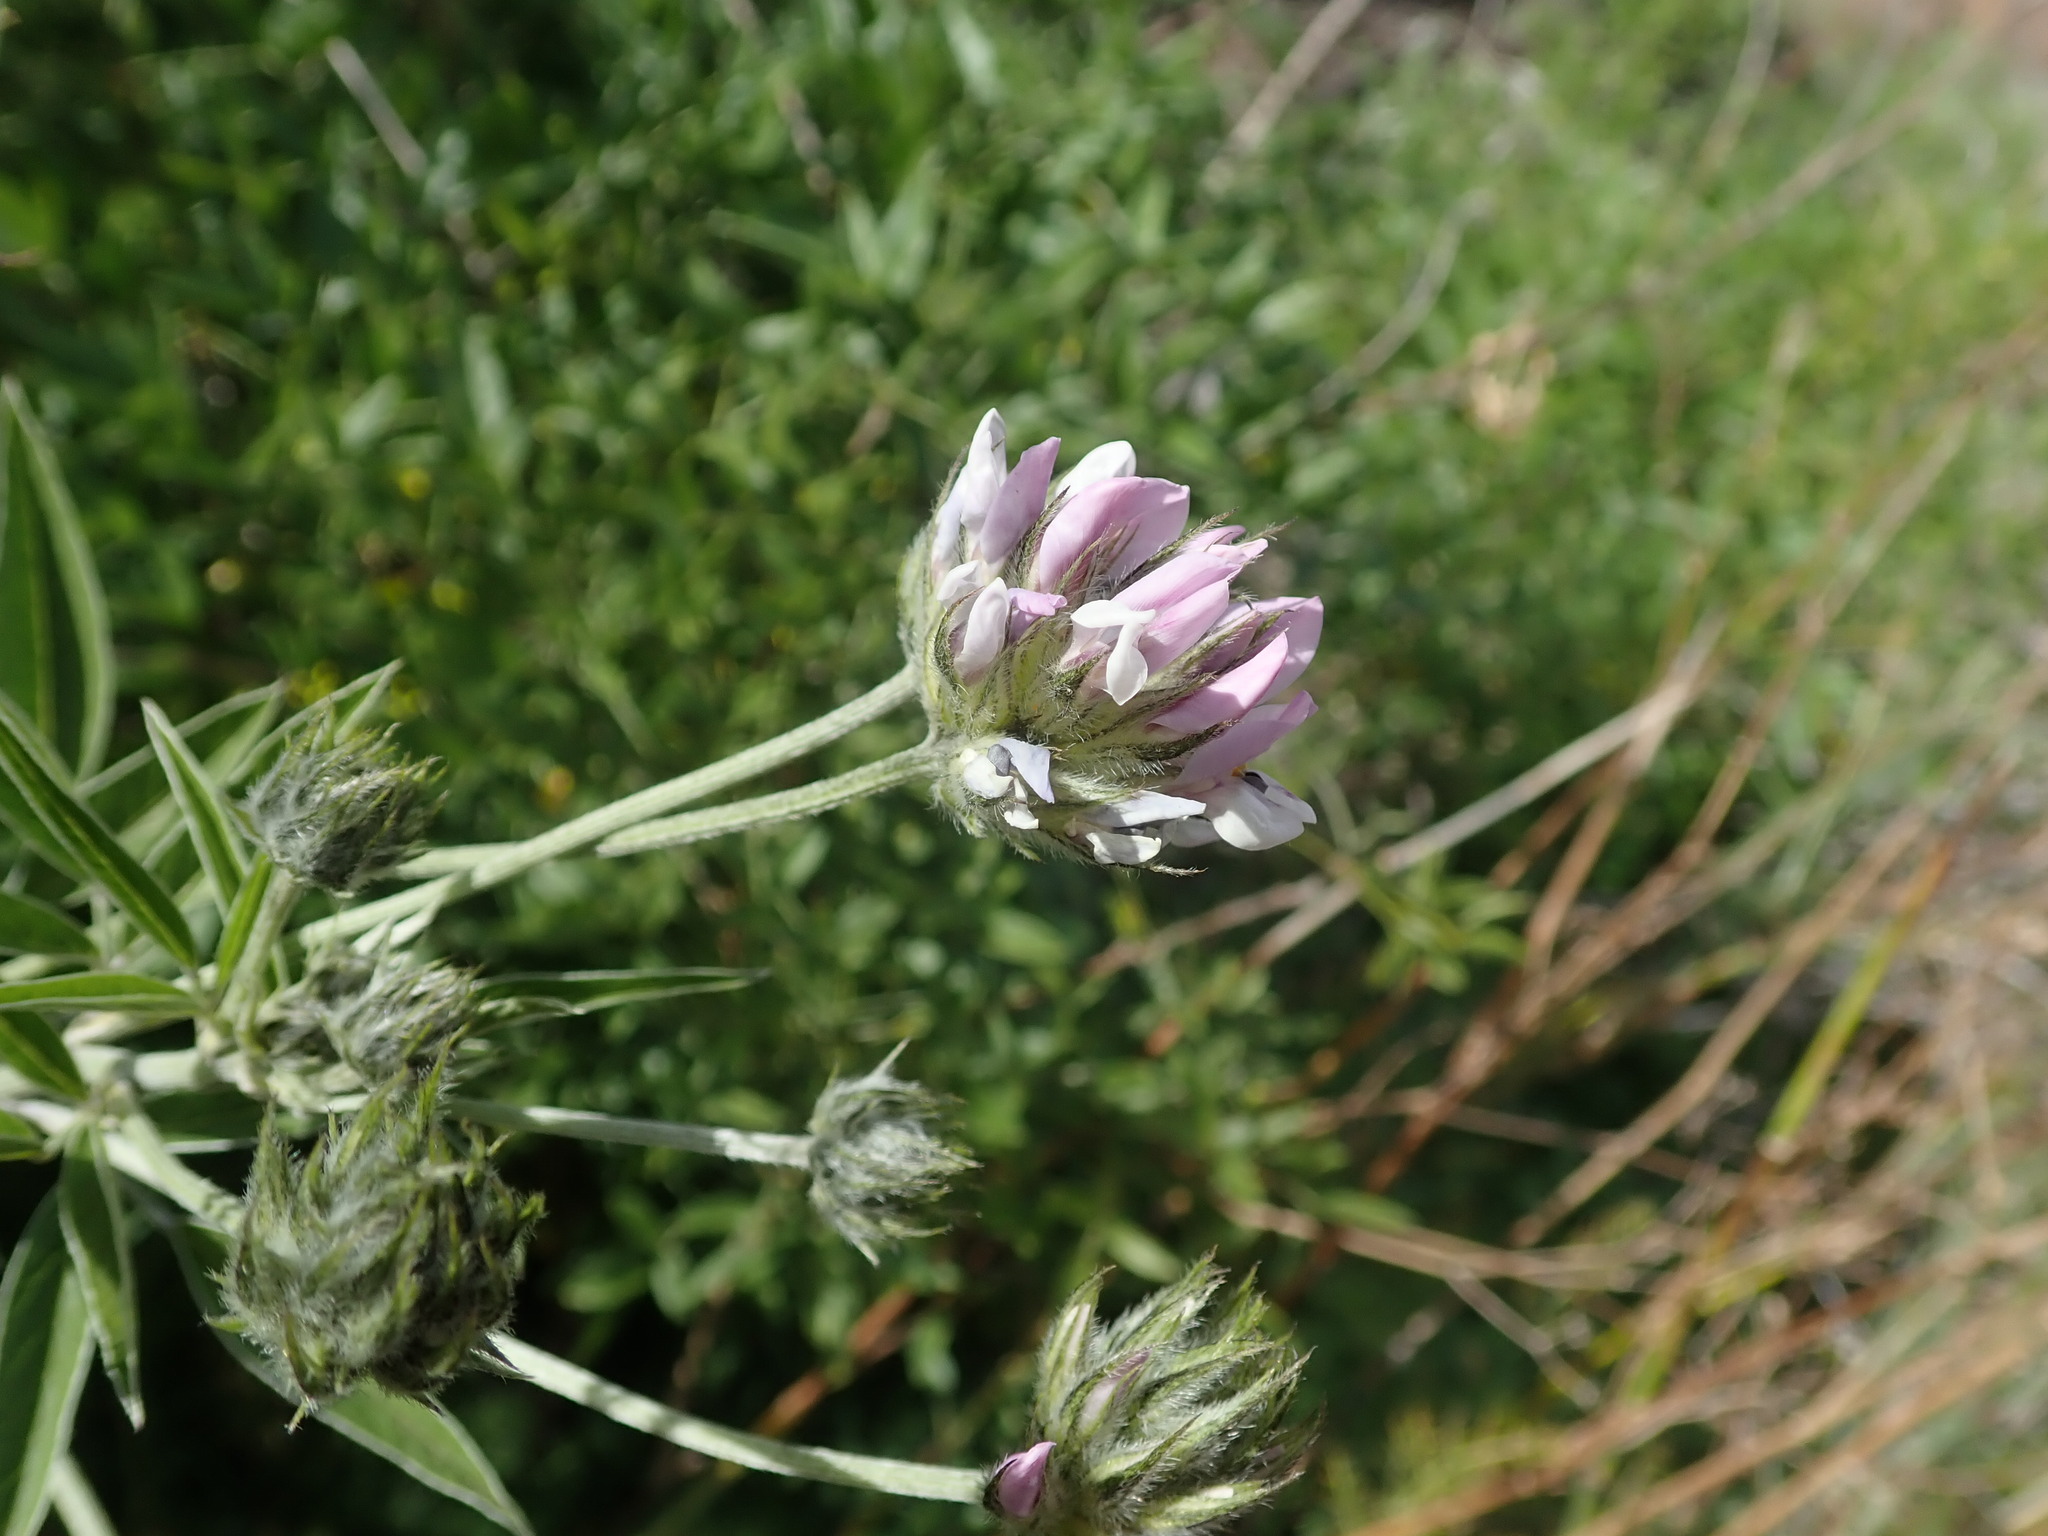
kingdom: Plantae
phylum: Tracheophyta
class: Magnoliopsida
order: Fabales
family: Fabaceae
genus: Bituminaria
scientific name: Bituminaria bituminosa
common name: Arabian pea
